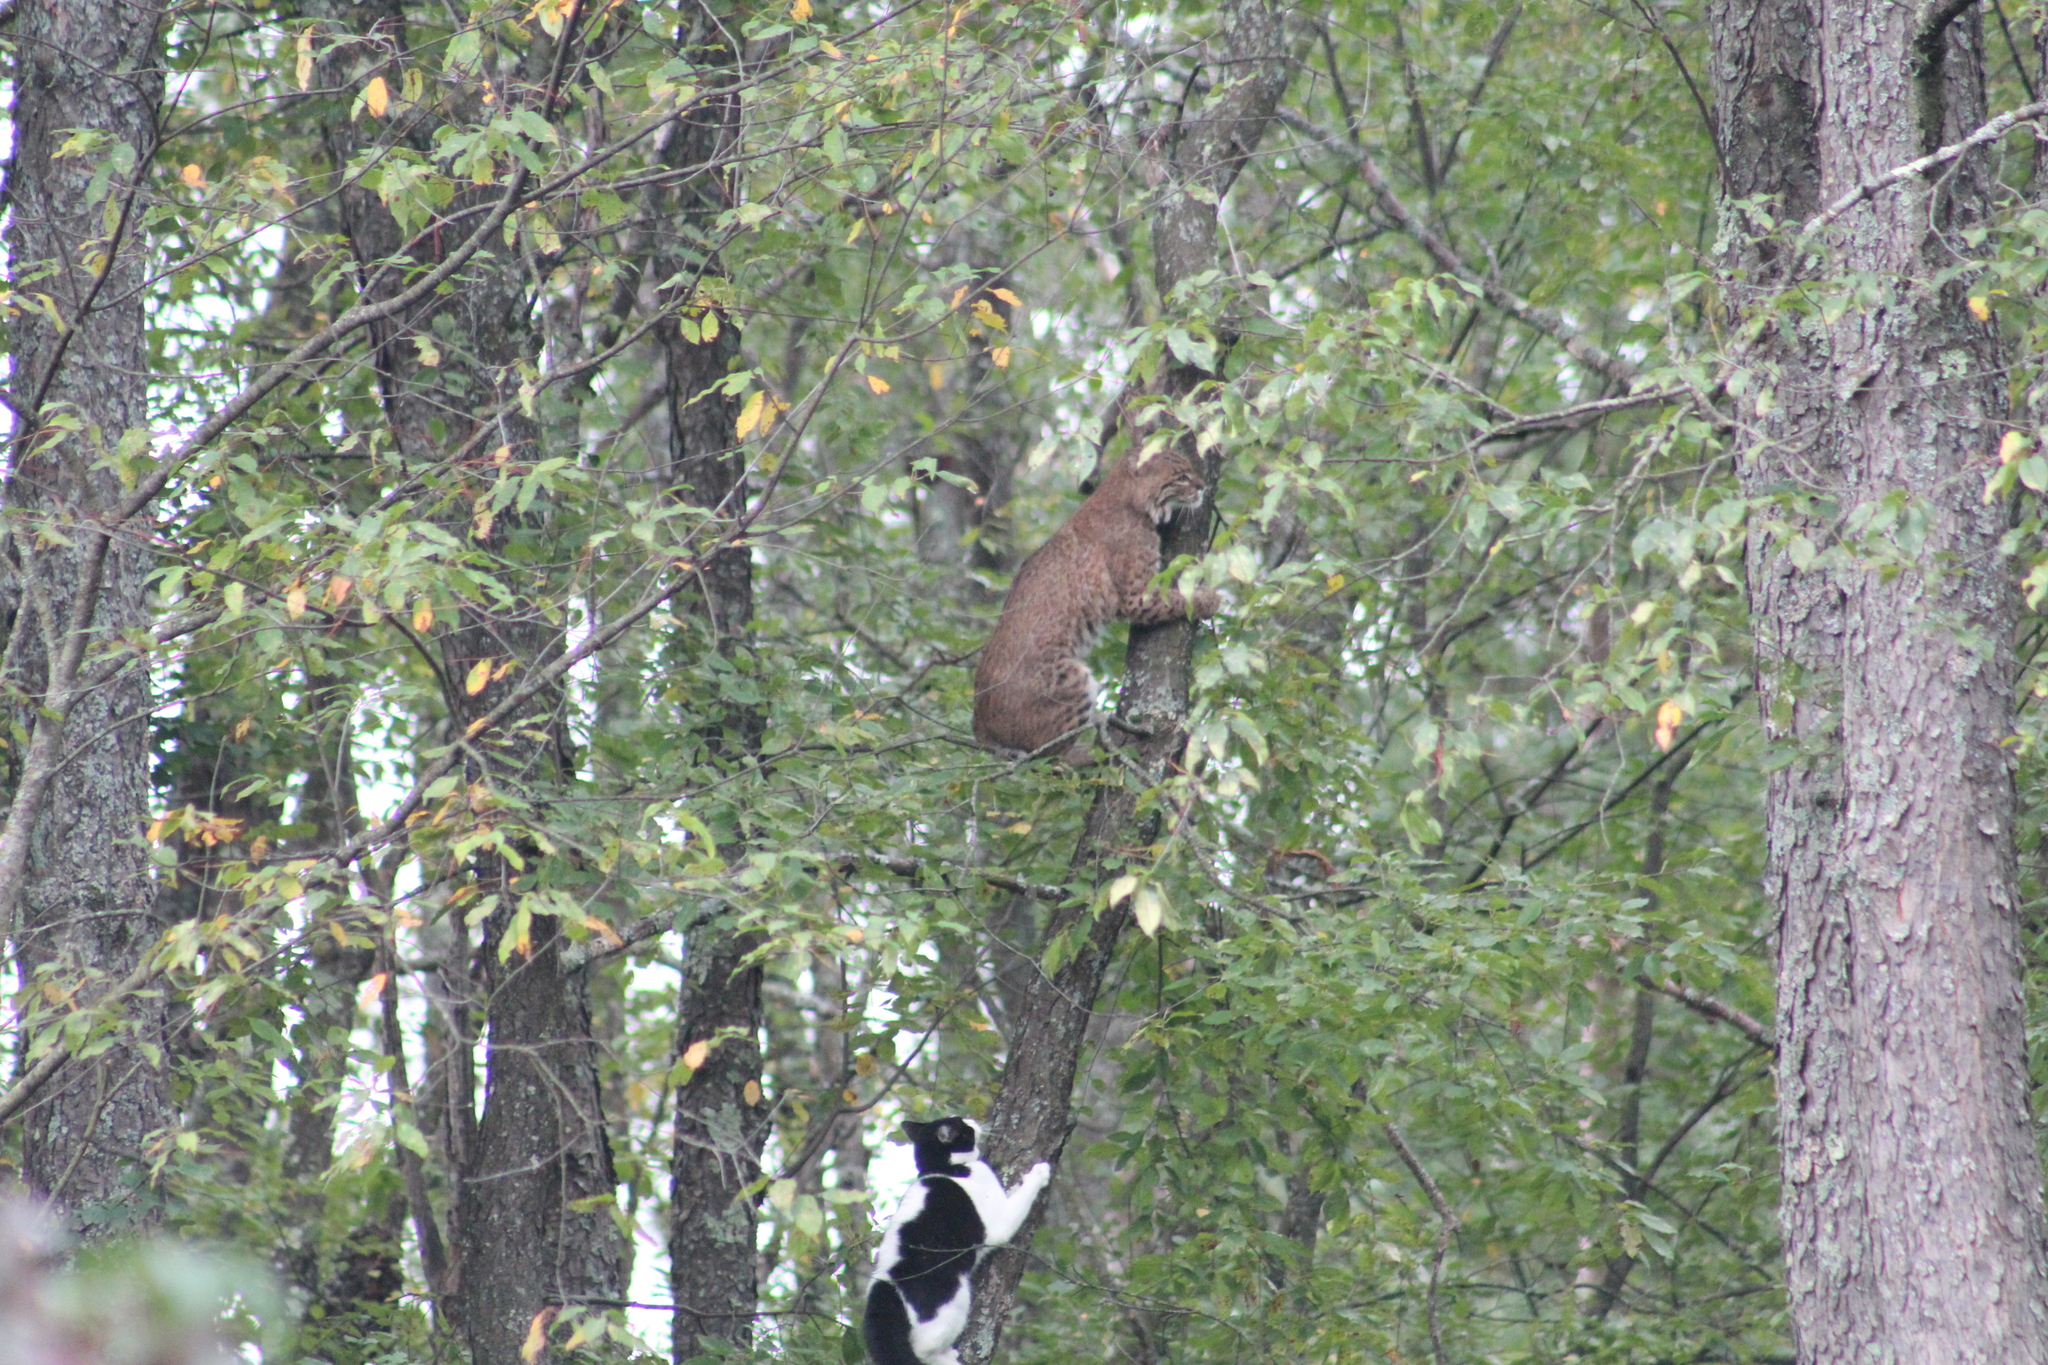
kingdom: Animalia
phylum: Chordata
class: Mammalia
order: Carnivora
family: Felidae
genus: Lynx
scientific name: Lynx rufus
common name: Bobcat
